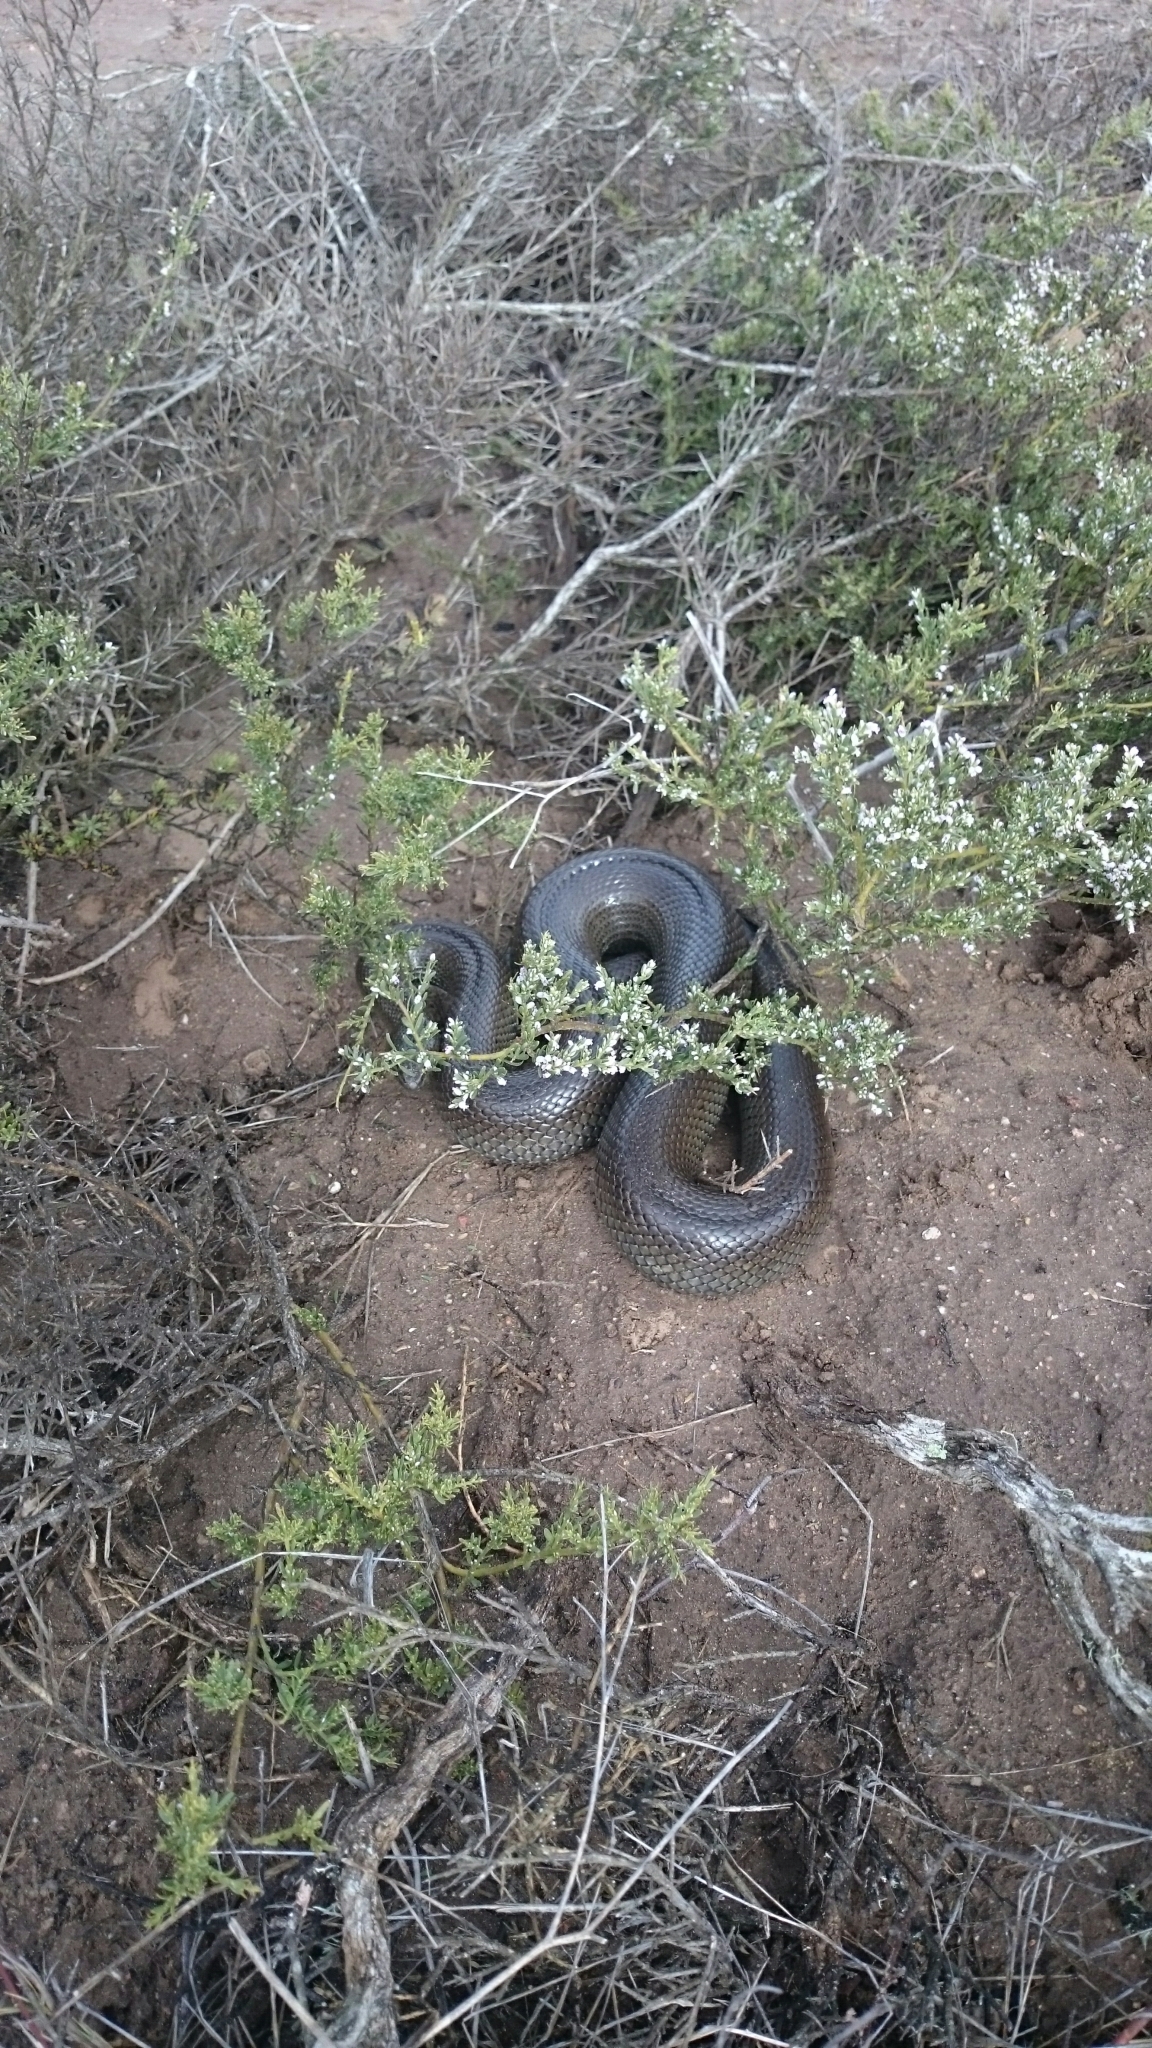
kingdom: Animalia
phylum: Chordata
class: Squamata
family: Pseudaspididae
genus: Pseudaspis
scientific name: Pseudaspis cana
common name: Mole snake
